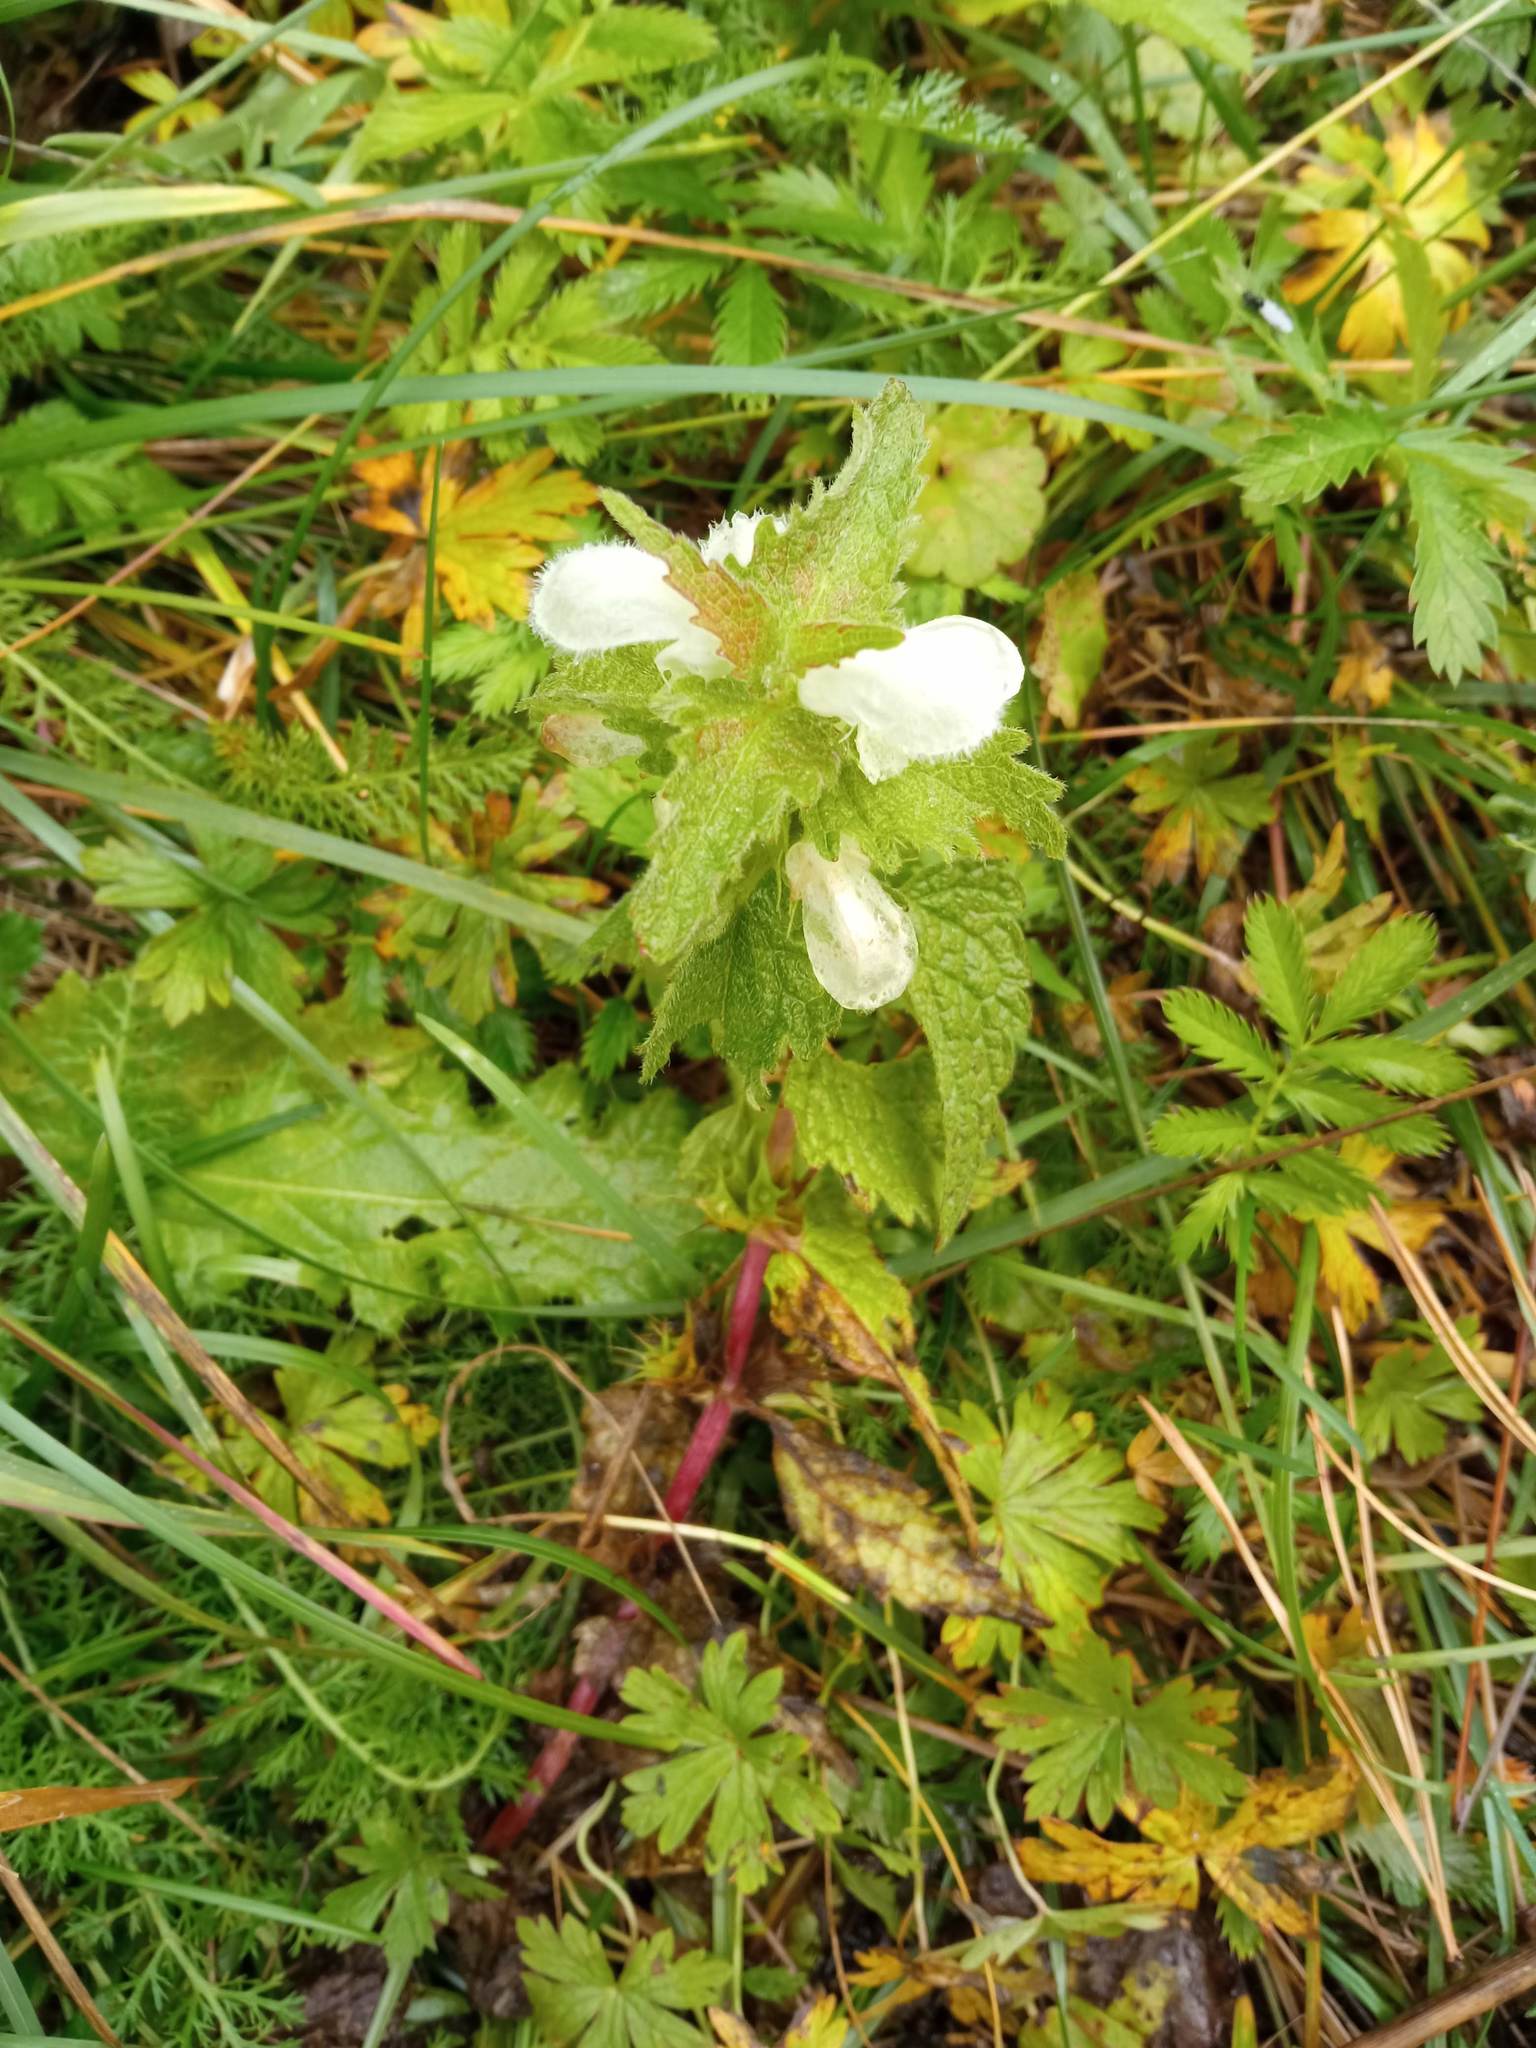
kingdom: Plantae
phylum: Tracheophyta
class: Magnoliopsida
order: Lamiales
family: Lamiaceae
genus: Lamium
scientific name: Lamium album
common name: White dead-nettle
